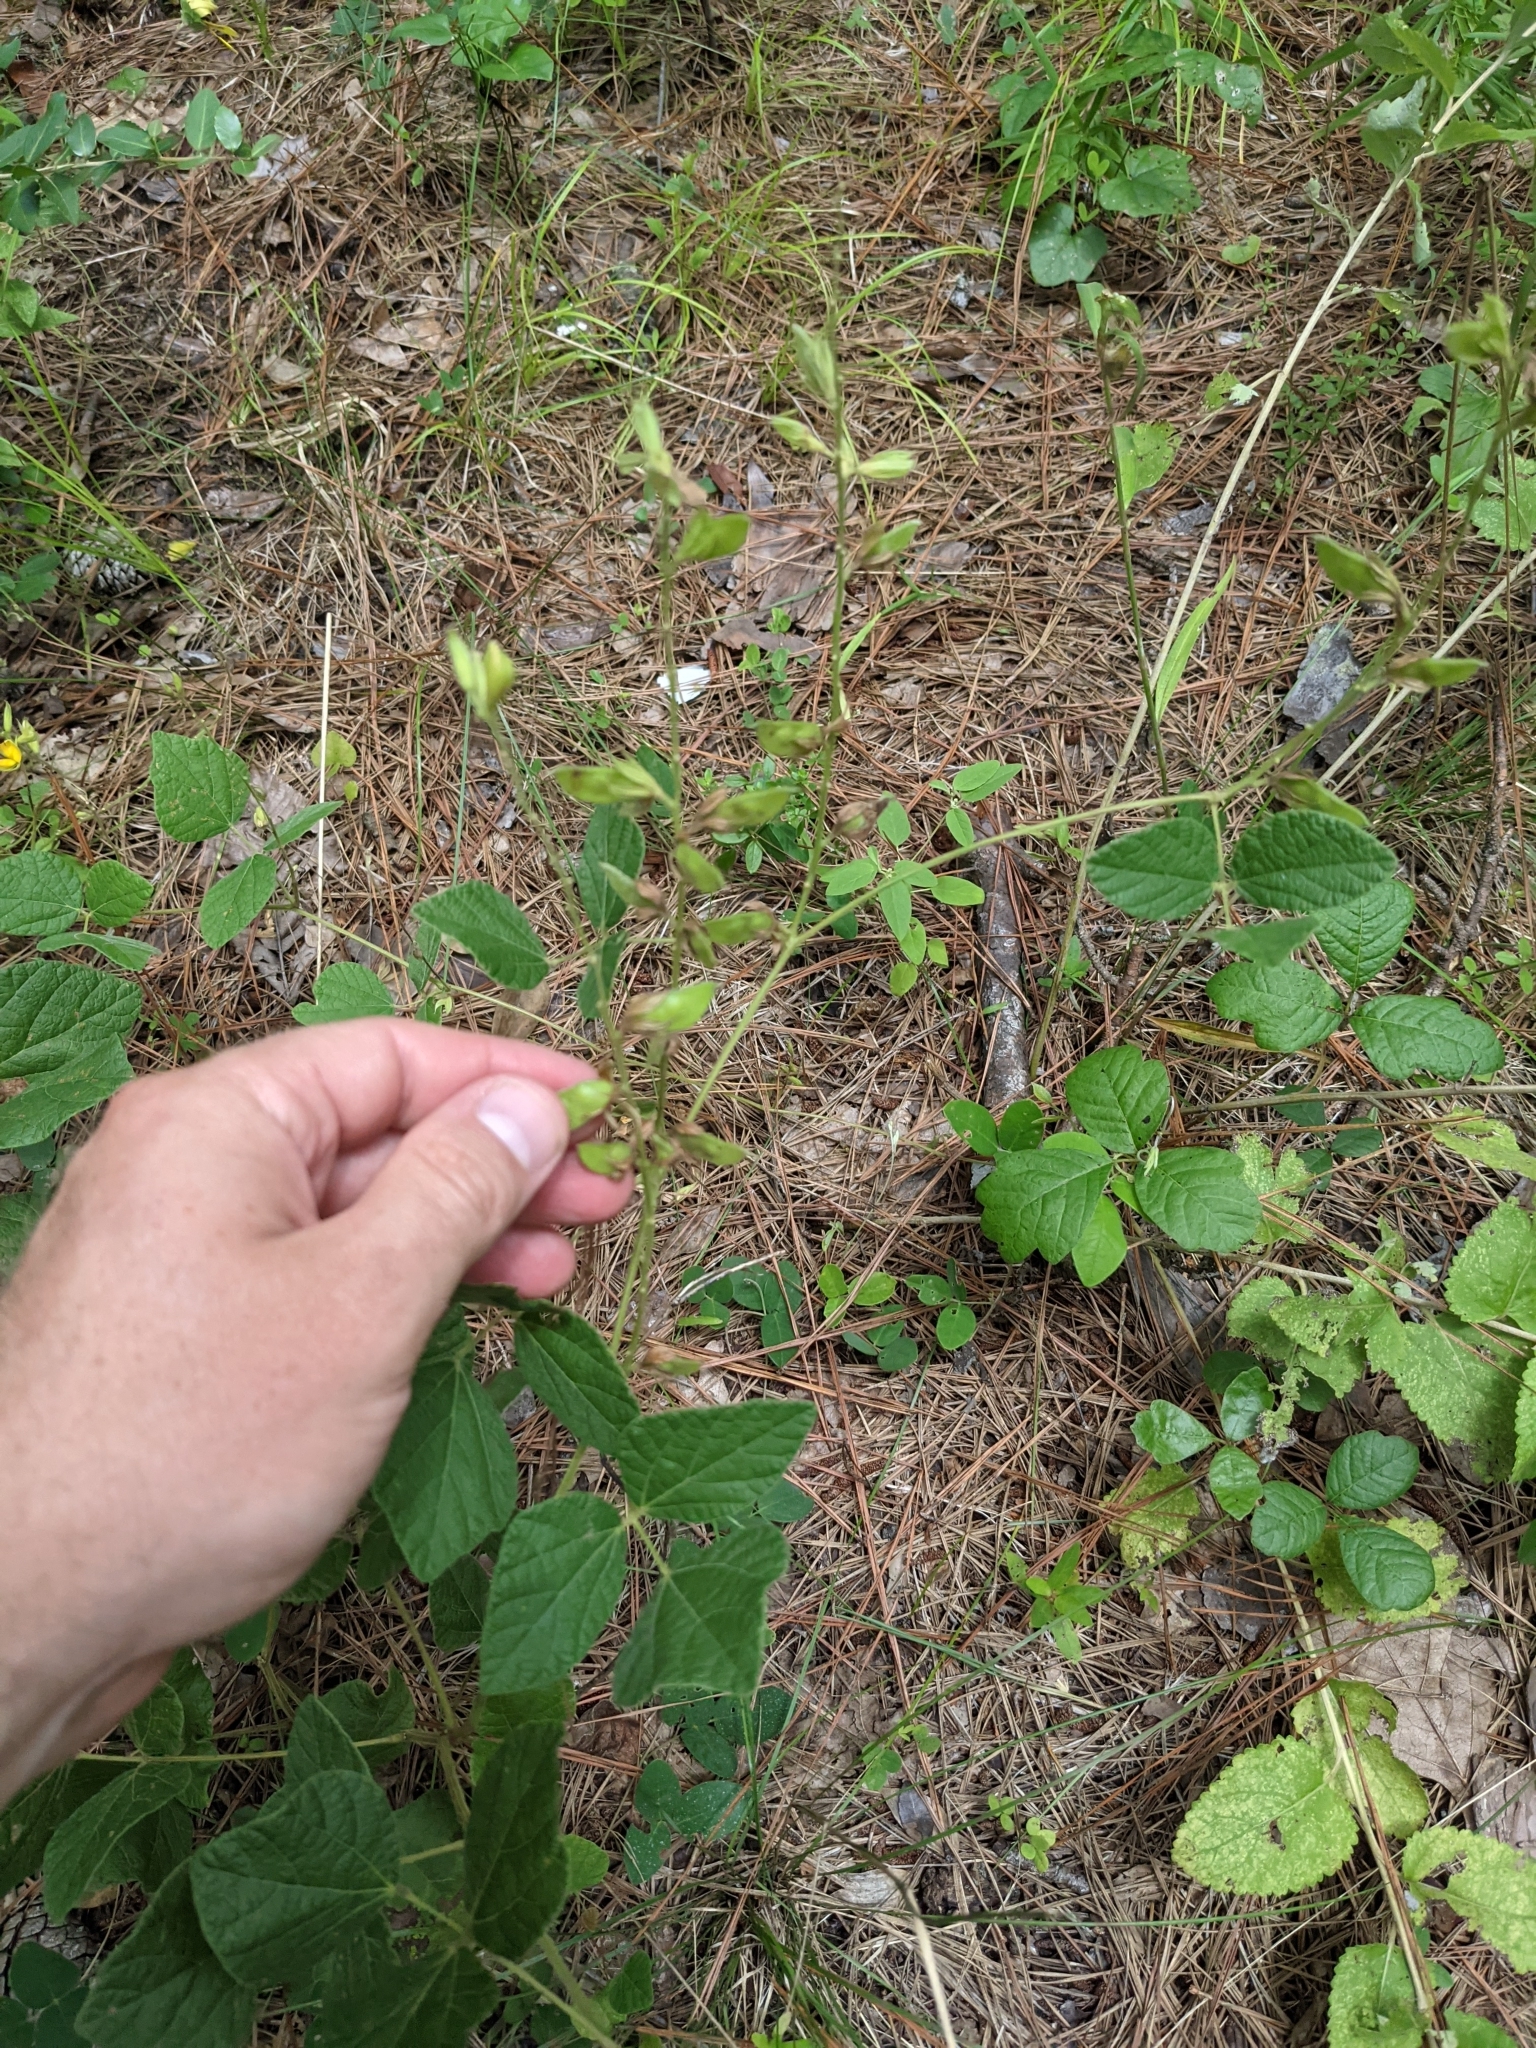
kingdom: Plantae
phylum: Tracheophyta
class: Magnoliopsida
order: Fabales
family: Fabaceae
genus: Rhynchosia
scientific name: Rhynchosia latifolia
